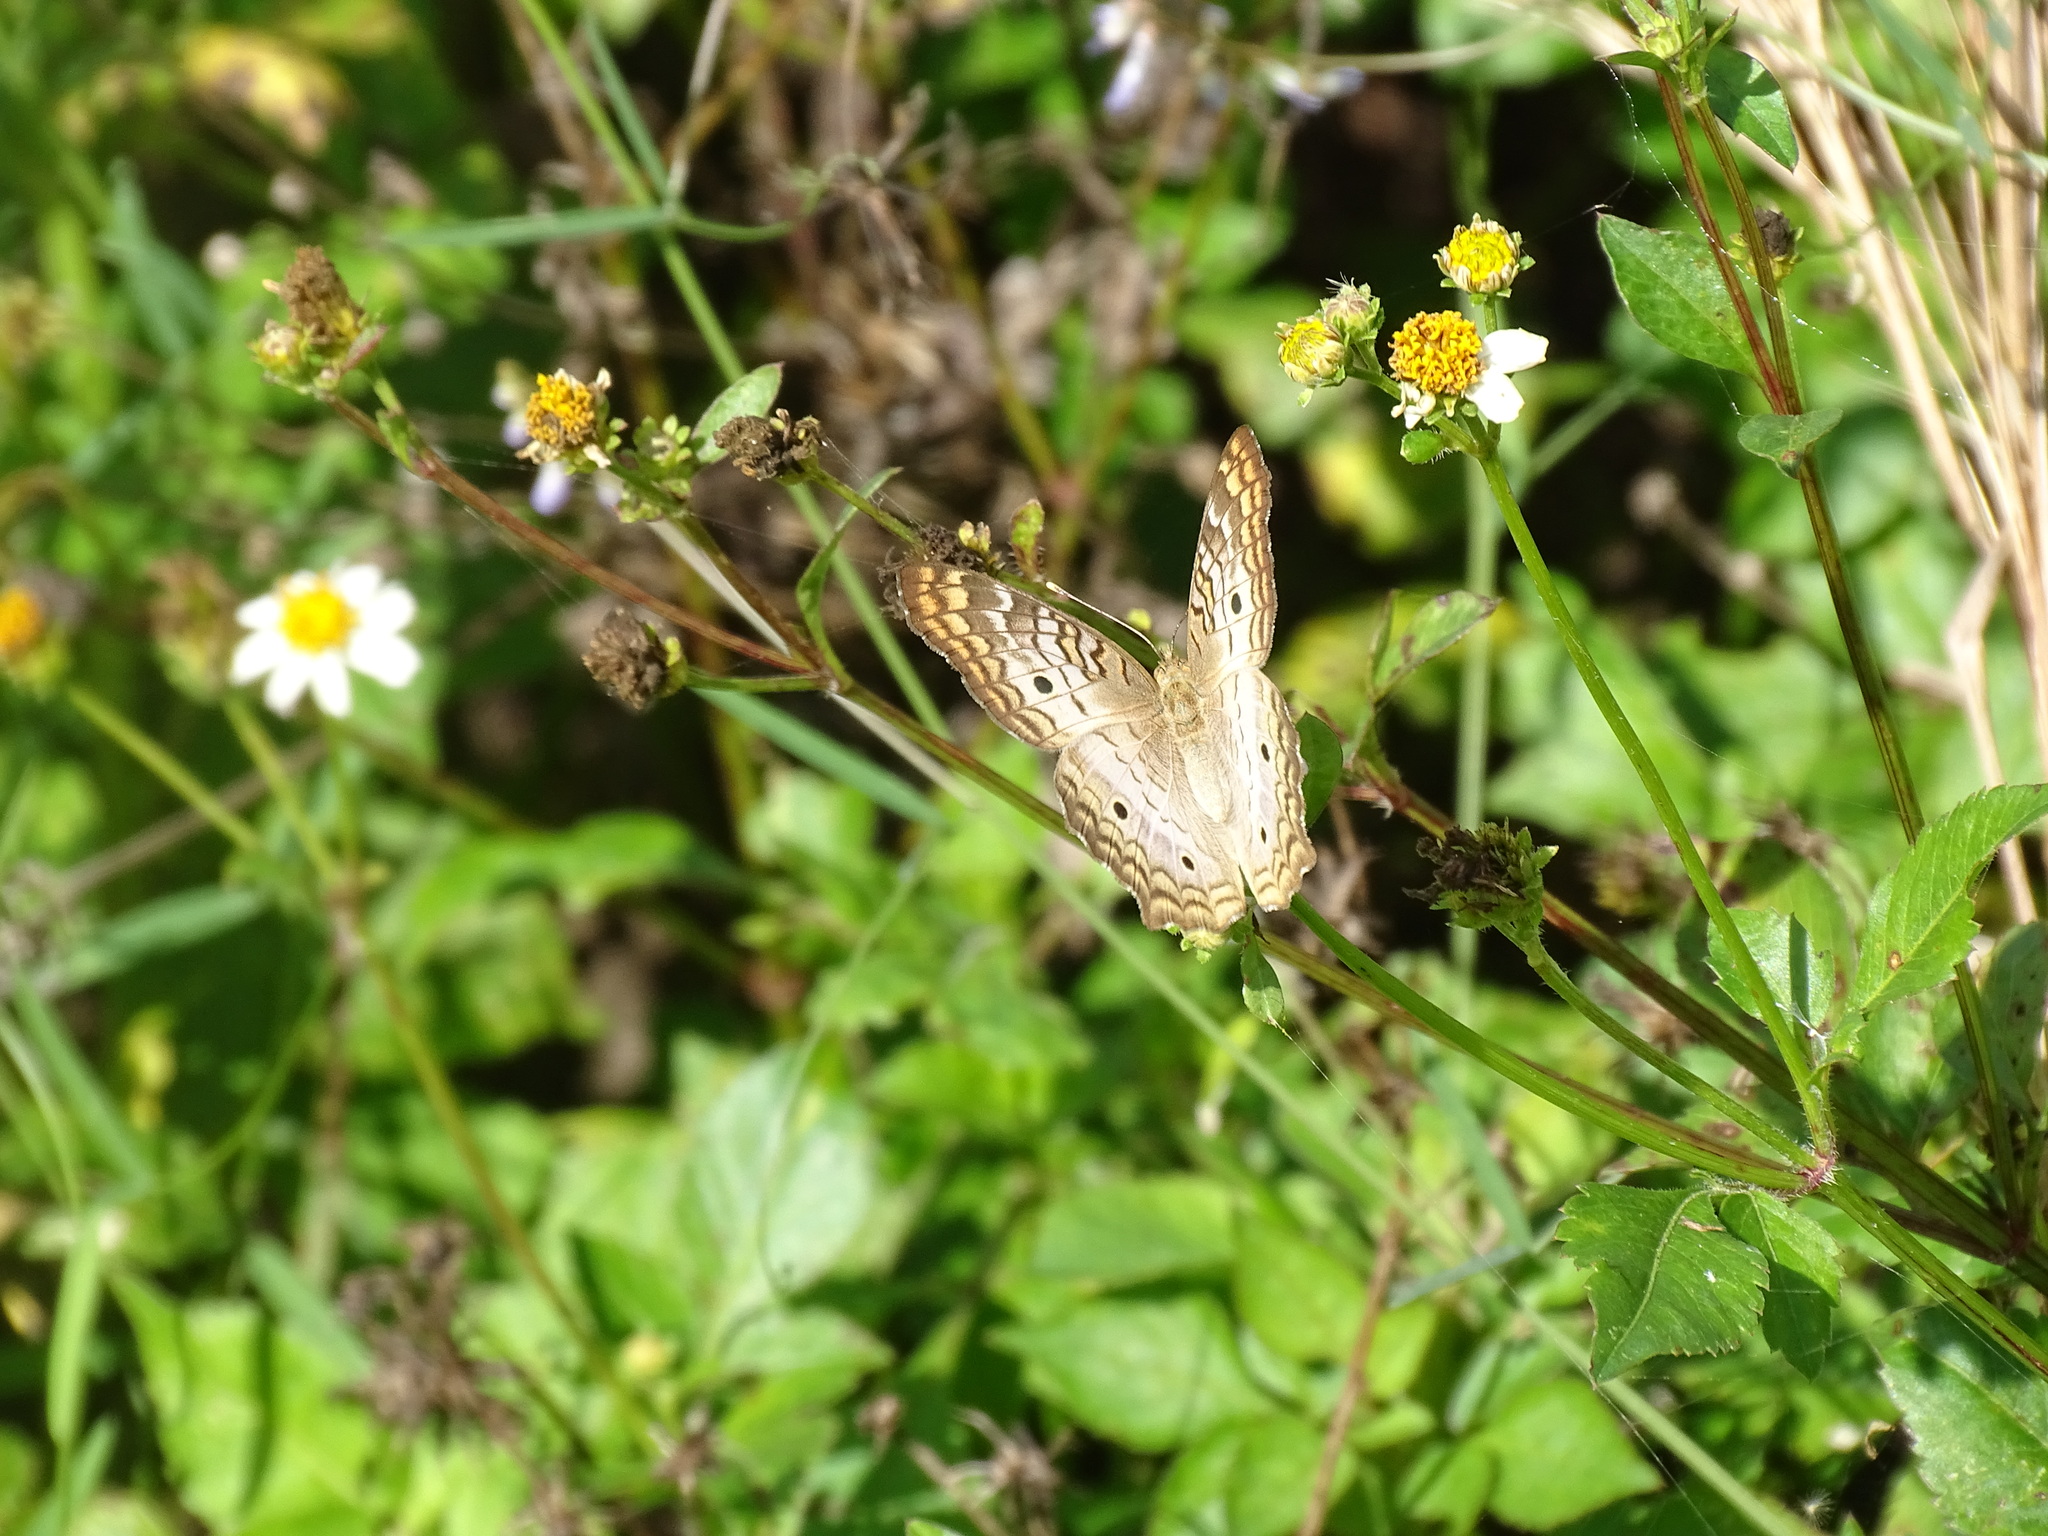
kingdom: Animalia
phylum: Arthropoda
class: Insecta
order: Lepidoptera
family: Nymphalidae
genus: Anartia
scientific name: Anartia jatrophae
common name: White peacock
